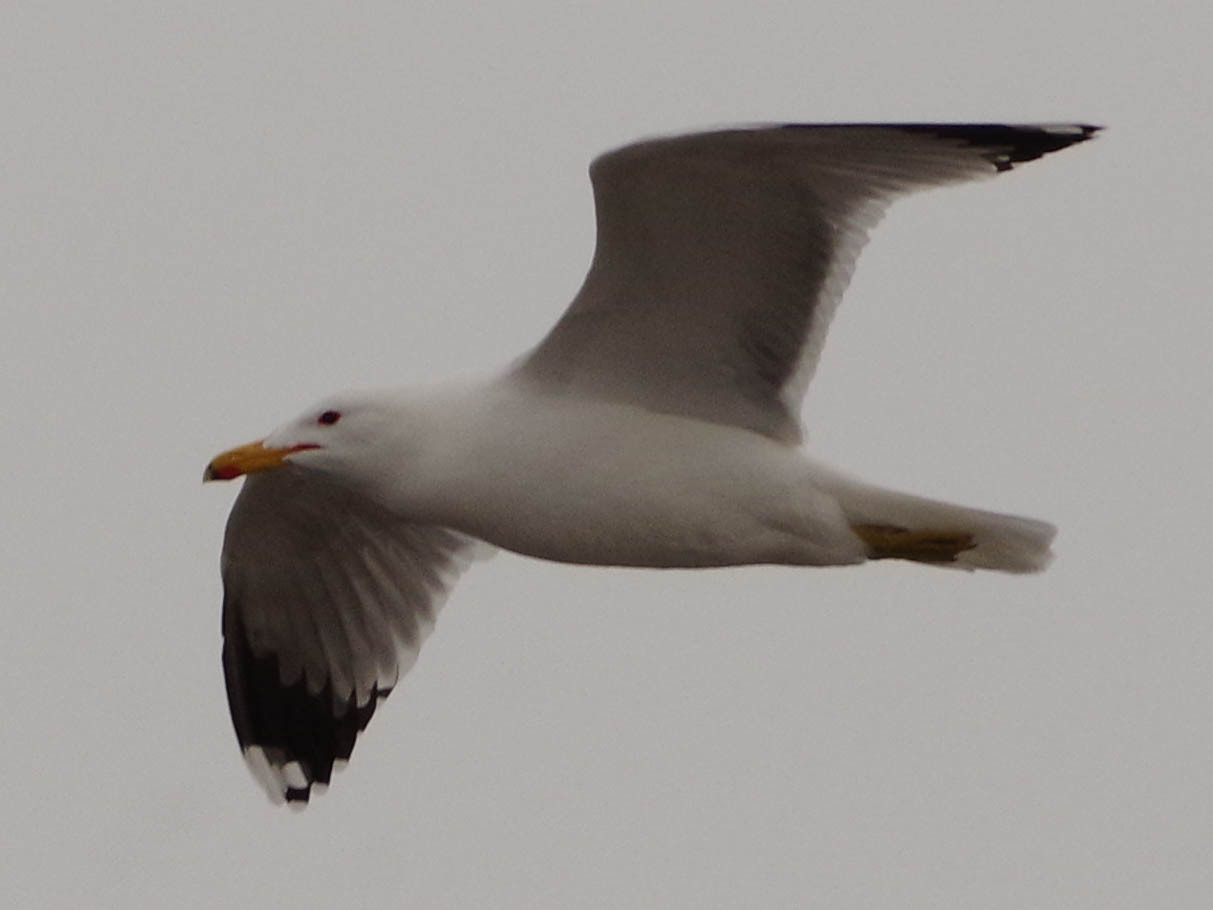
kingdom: Animalia
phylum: Chordata
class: Aves
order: Charadriiformes
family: Laridae
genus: Larus
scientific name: Larus californicus
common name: California gull
